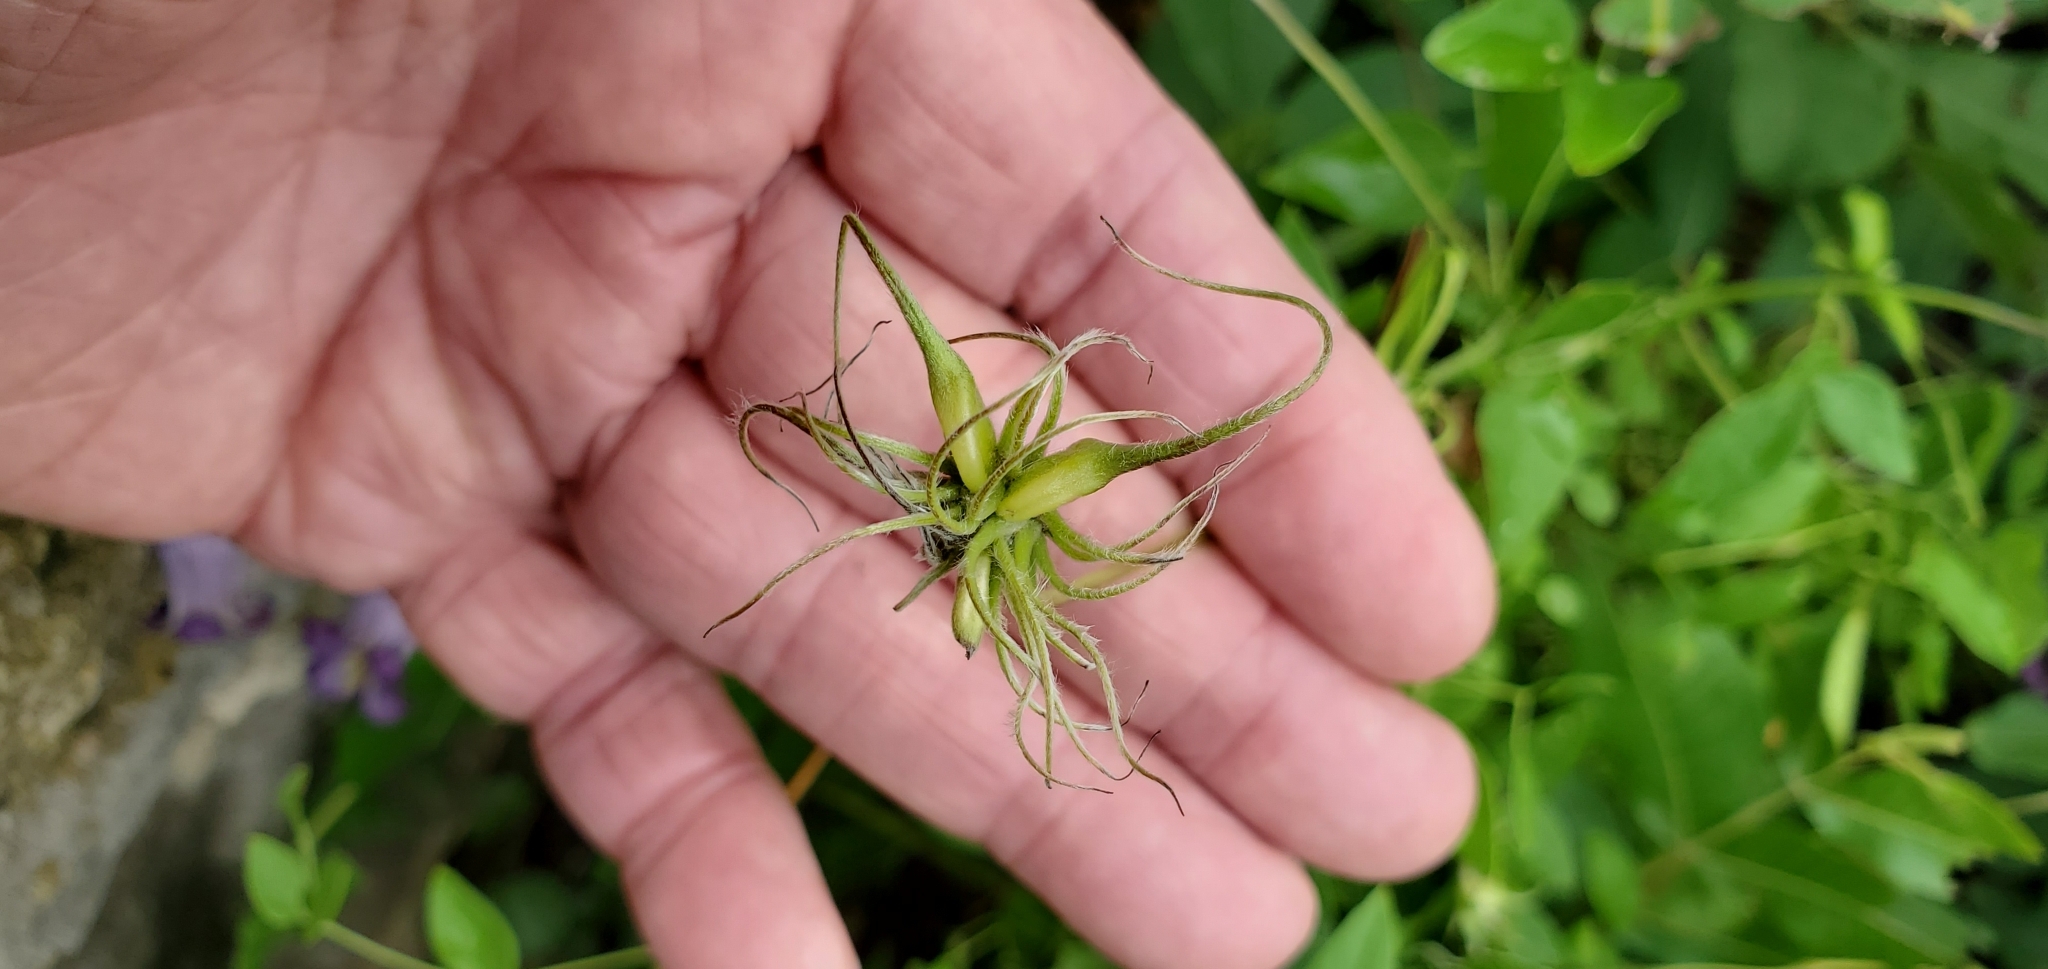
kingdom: Plantae
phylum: Tracheophyta
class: Magnoliopsida
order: Ranunculales
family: Ranunculaceae
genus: Clematis
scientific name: Clematis pitcheri
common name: Bellflower clematis
